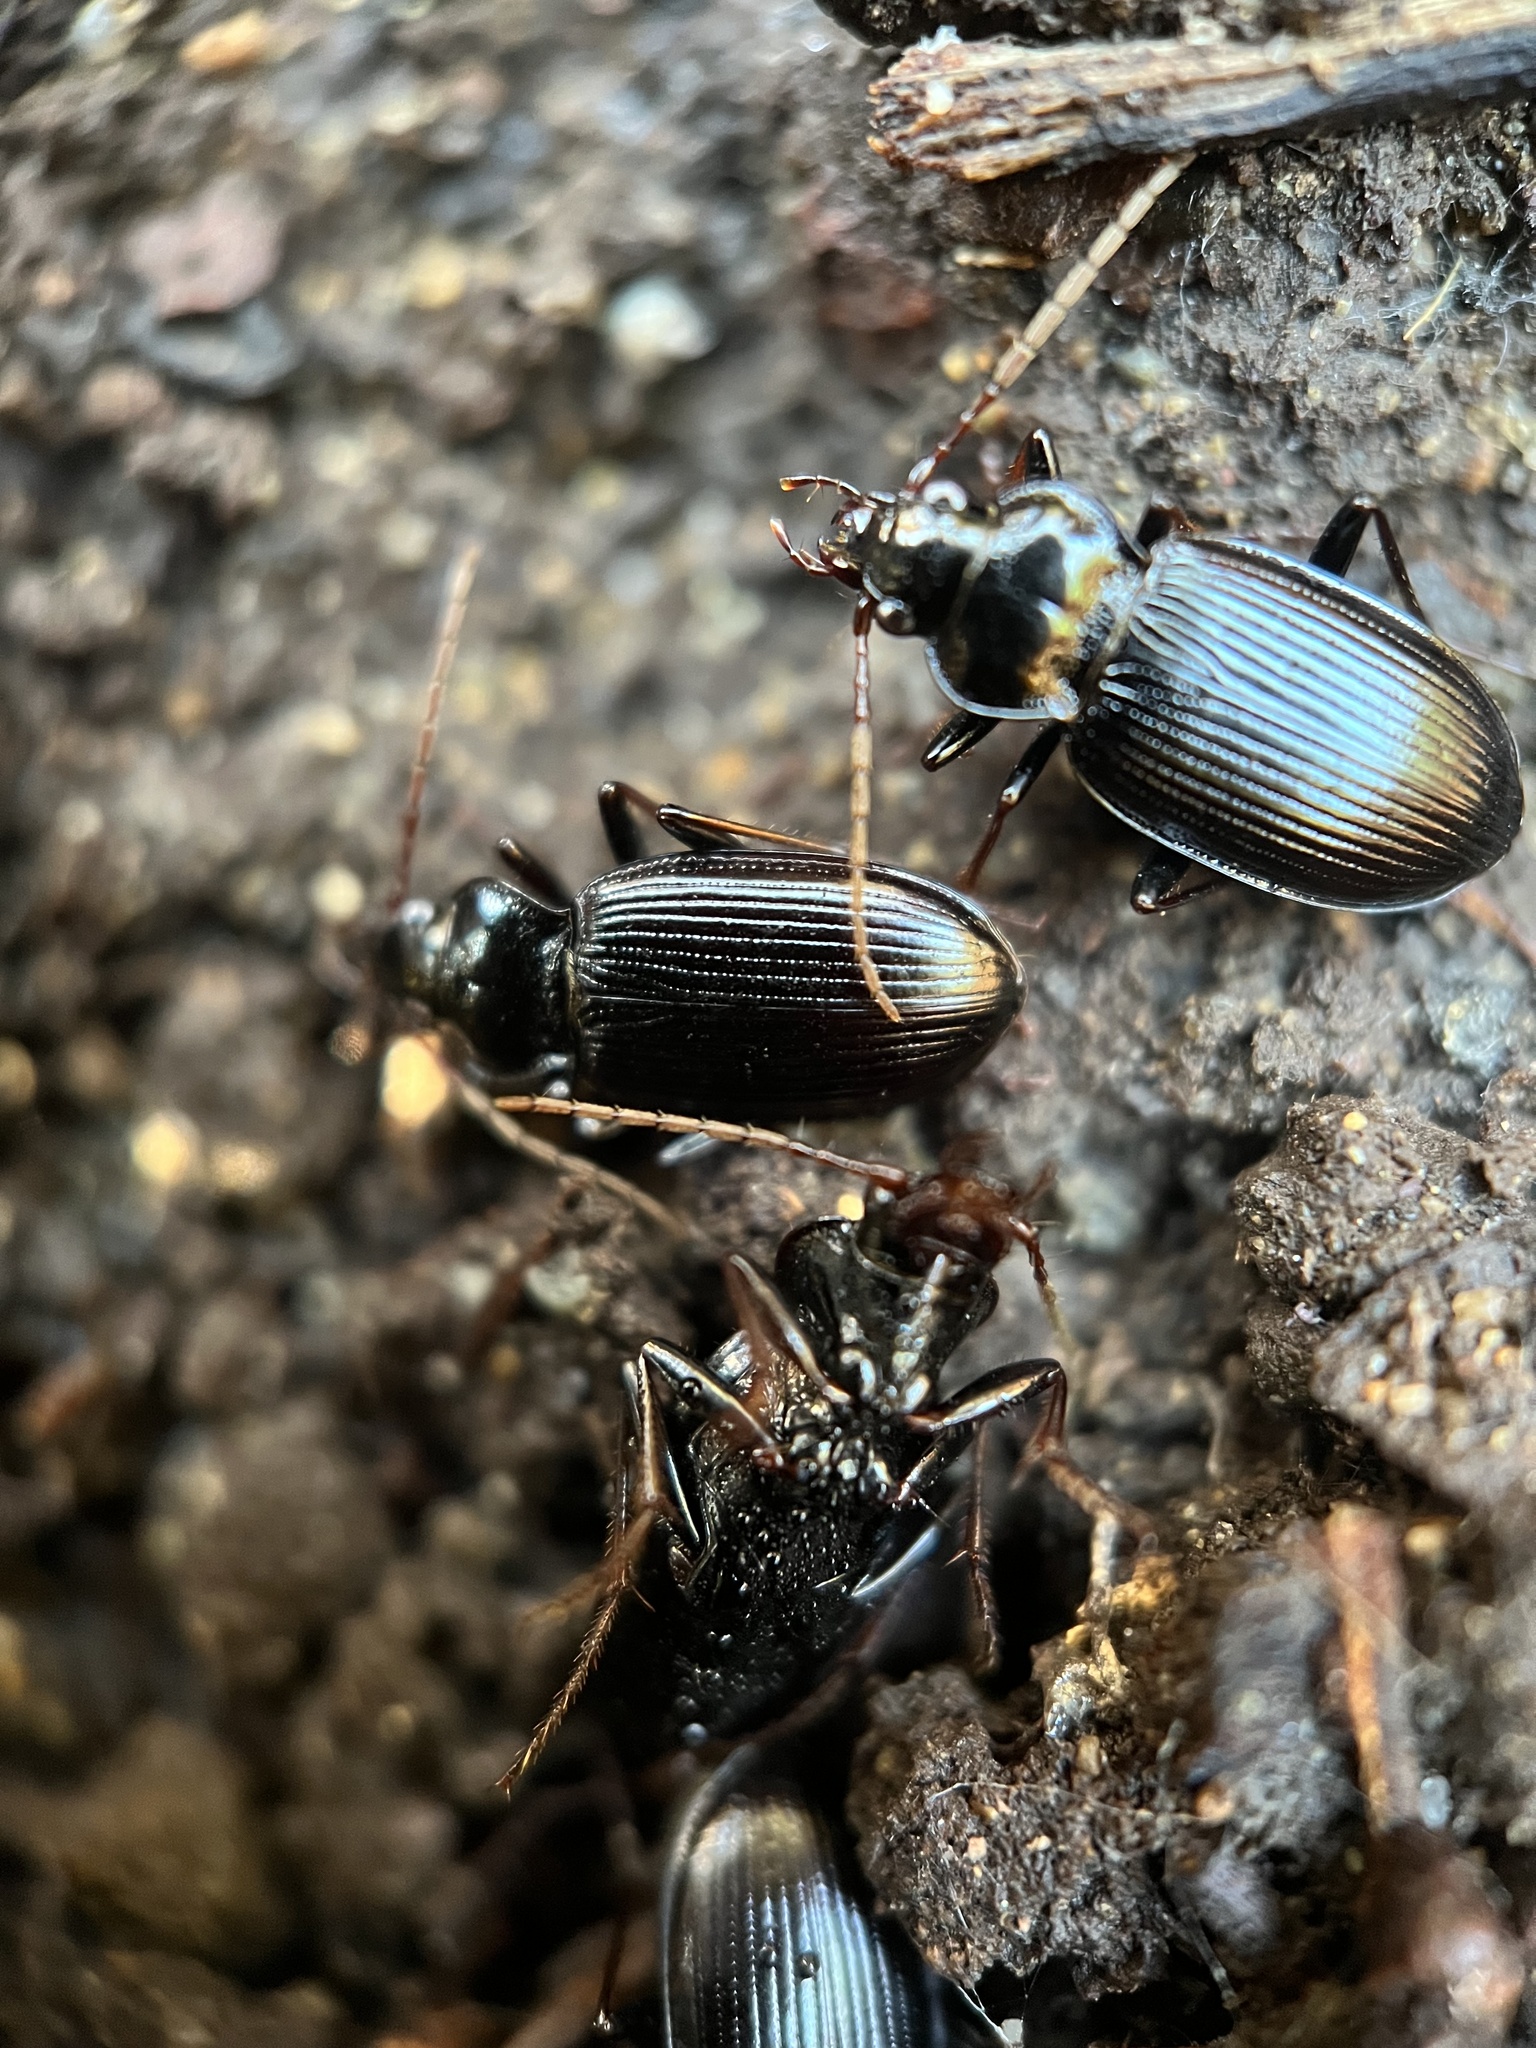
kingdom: Animalia
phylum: Arthropoda
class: Insecta
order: Coleoptera
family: Carabidae
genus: Nebria
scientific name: Nebria brevicollis
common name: Short-necked gazelle beetle
